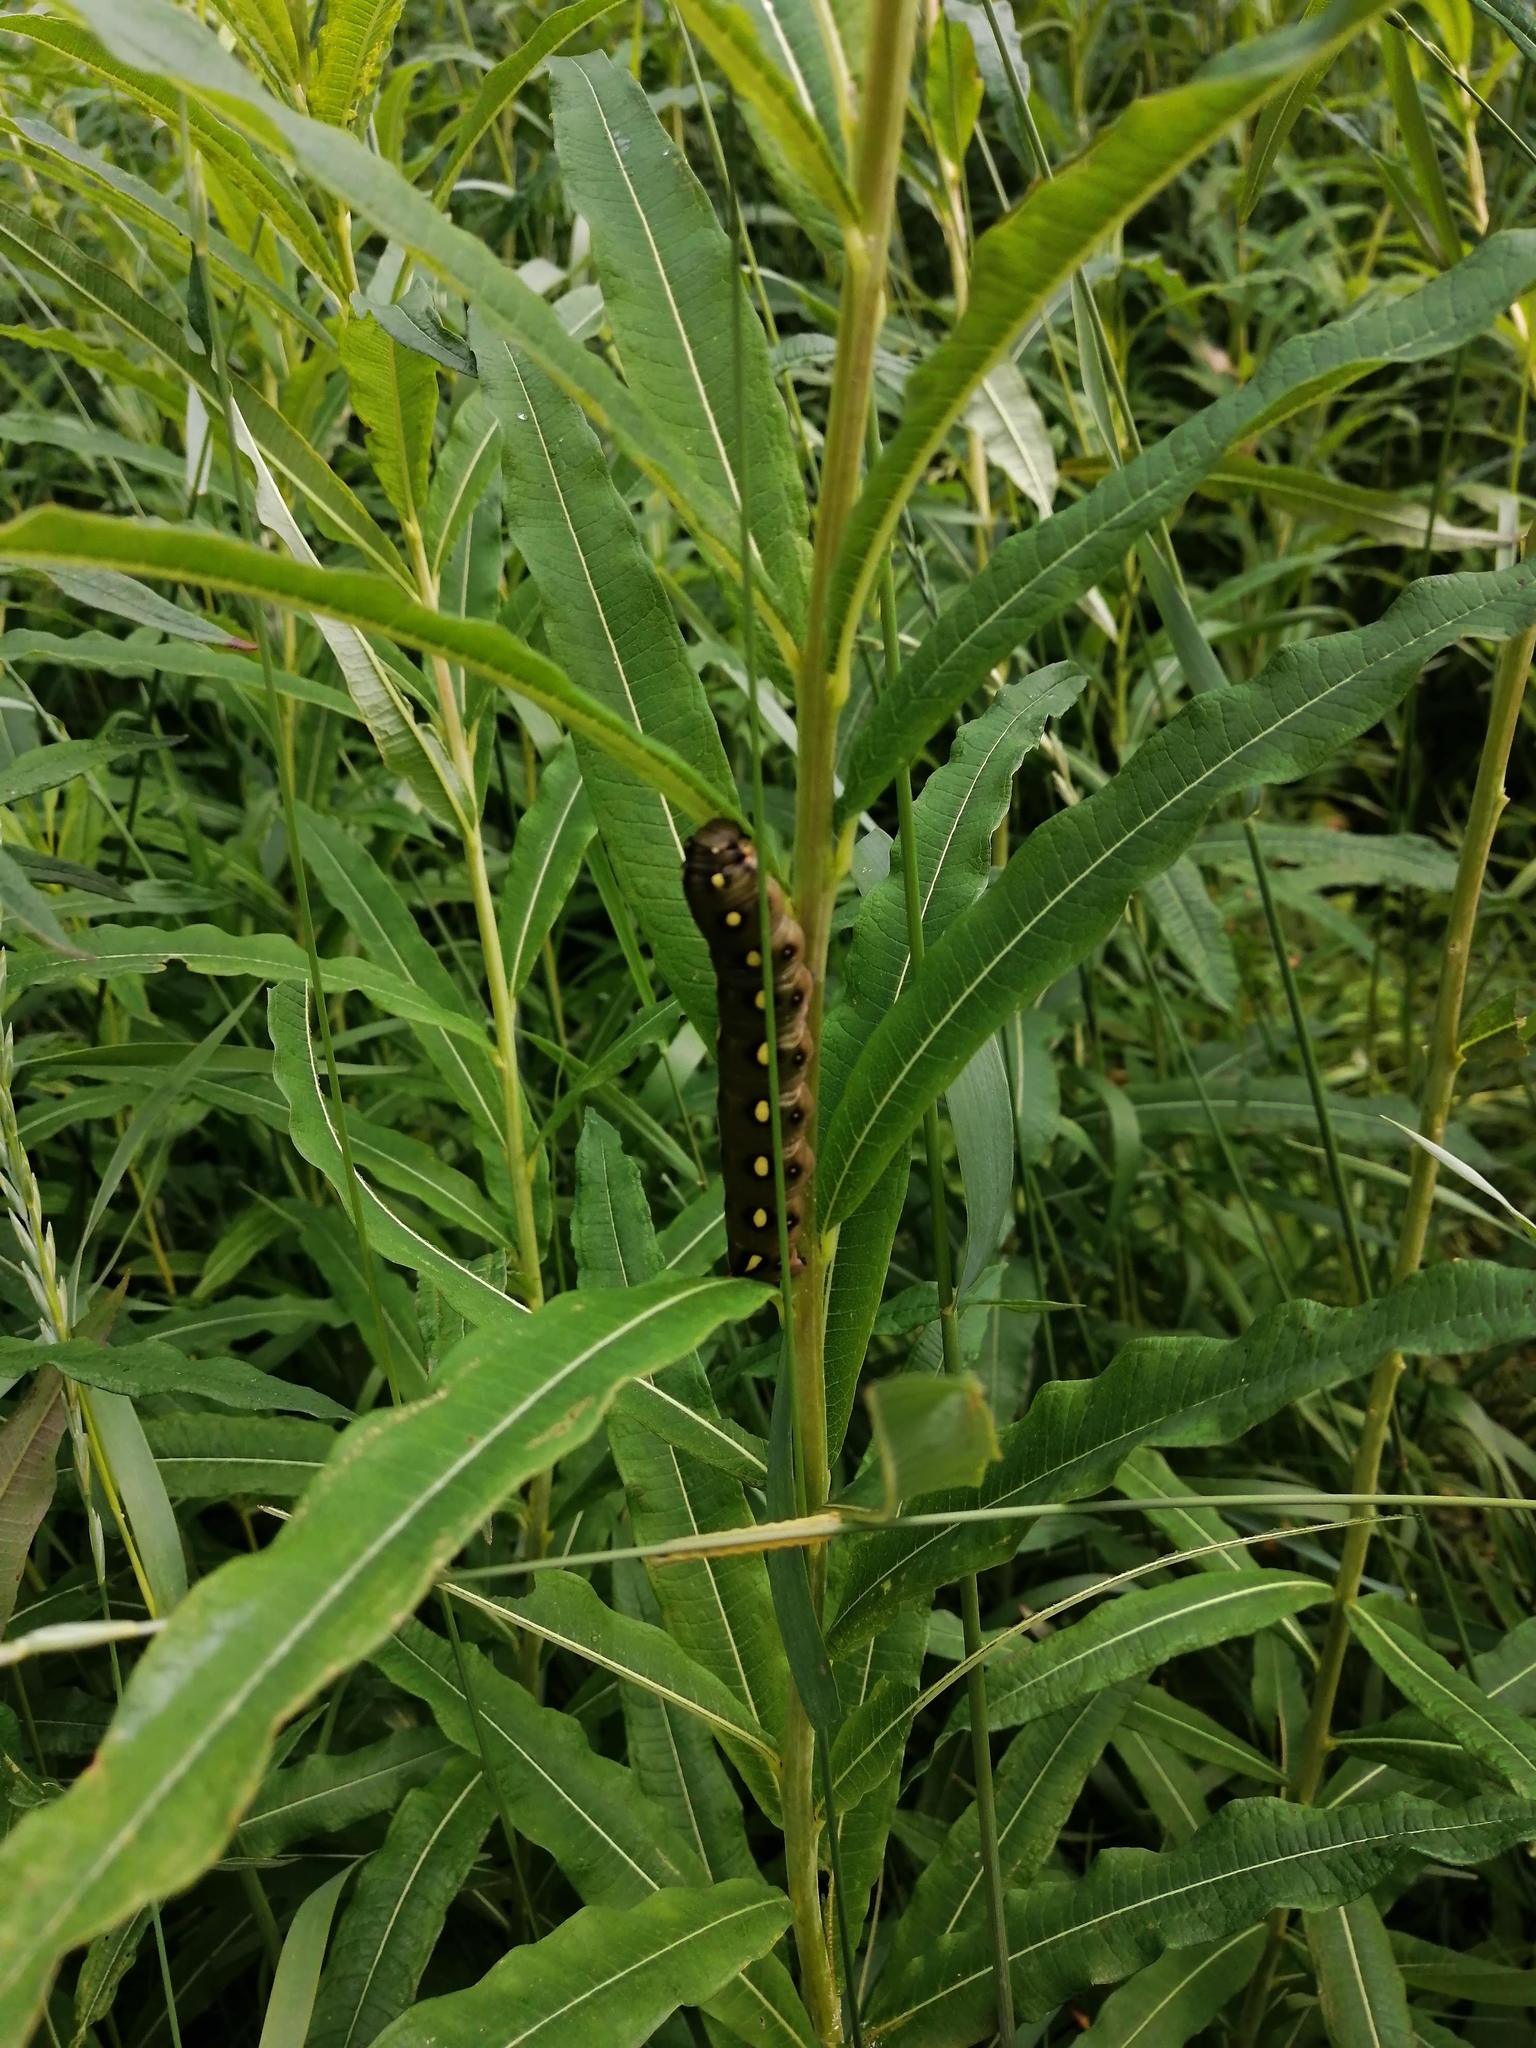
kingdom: Animalia
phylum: Arthropoda
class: Insecta
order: Lepidoptera
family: Sphingidae
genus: Hyles
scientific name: Hyles gallii
